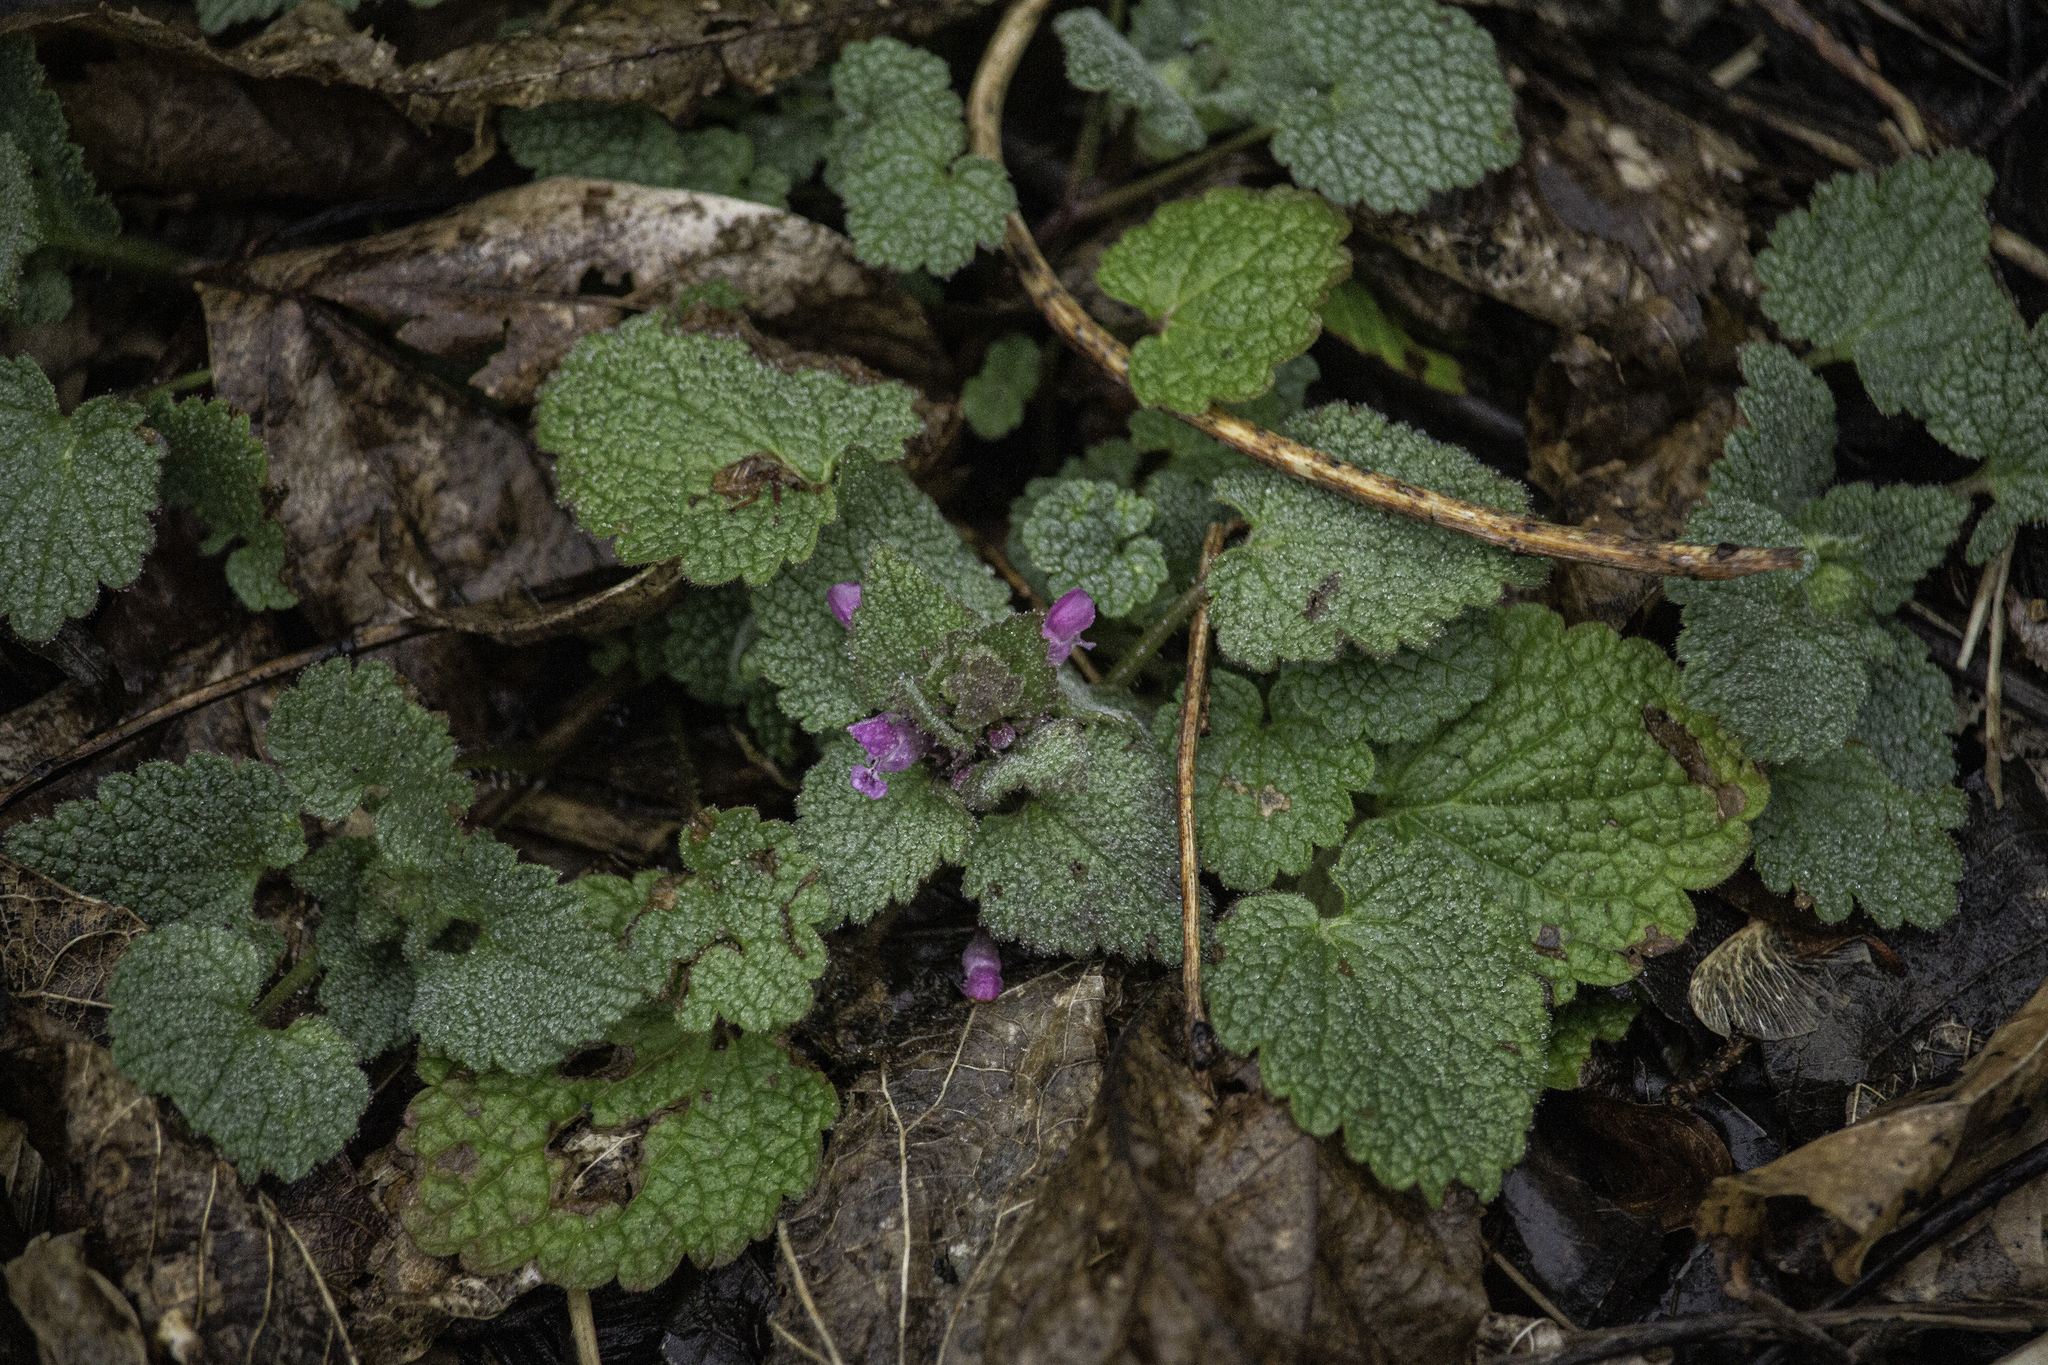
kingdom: Plantae
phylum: Tracheophyta
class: Magnoliopsida
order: Lamiales
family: Lamiaceae
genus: Lamium
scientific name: Lamium purpureum
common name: Red dead-nettle
